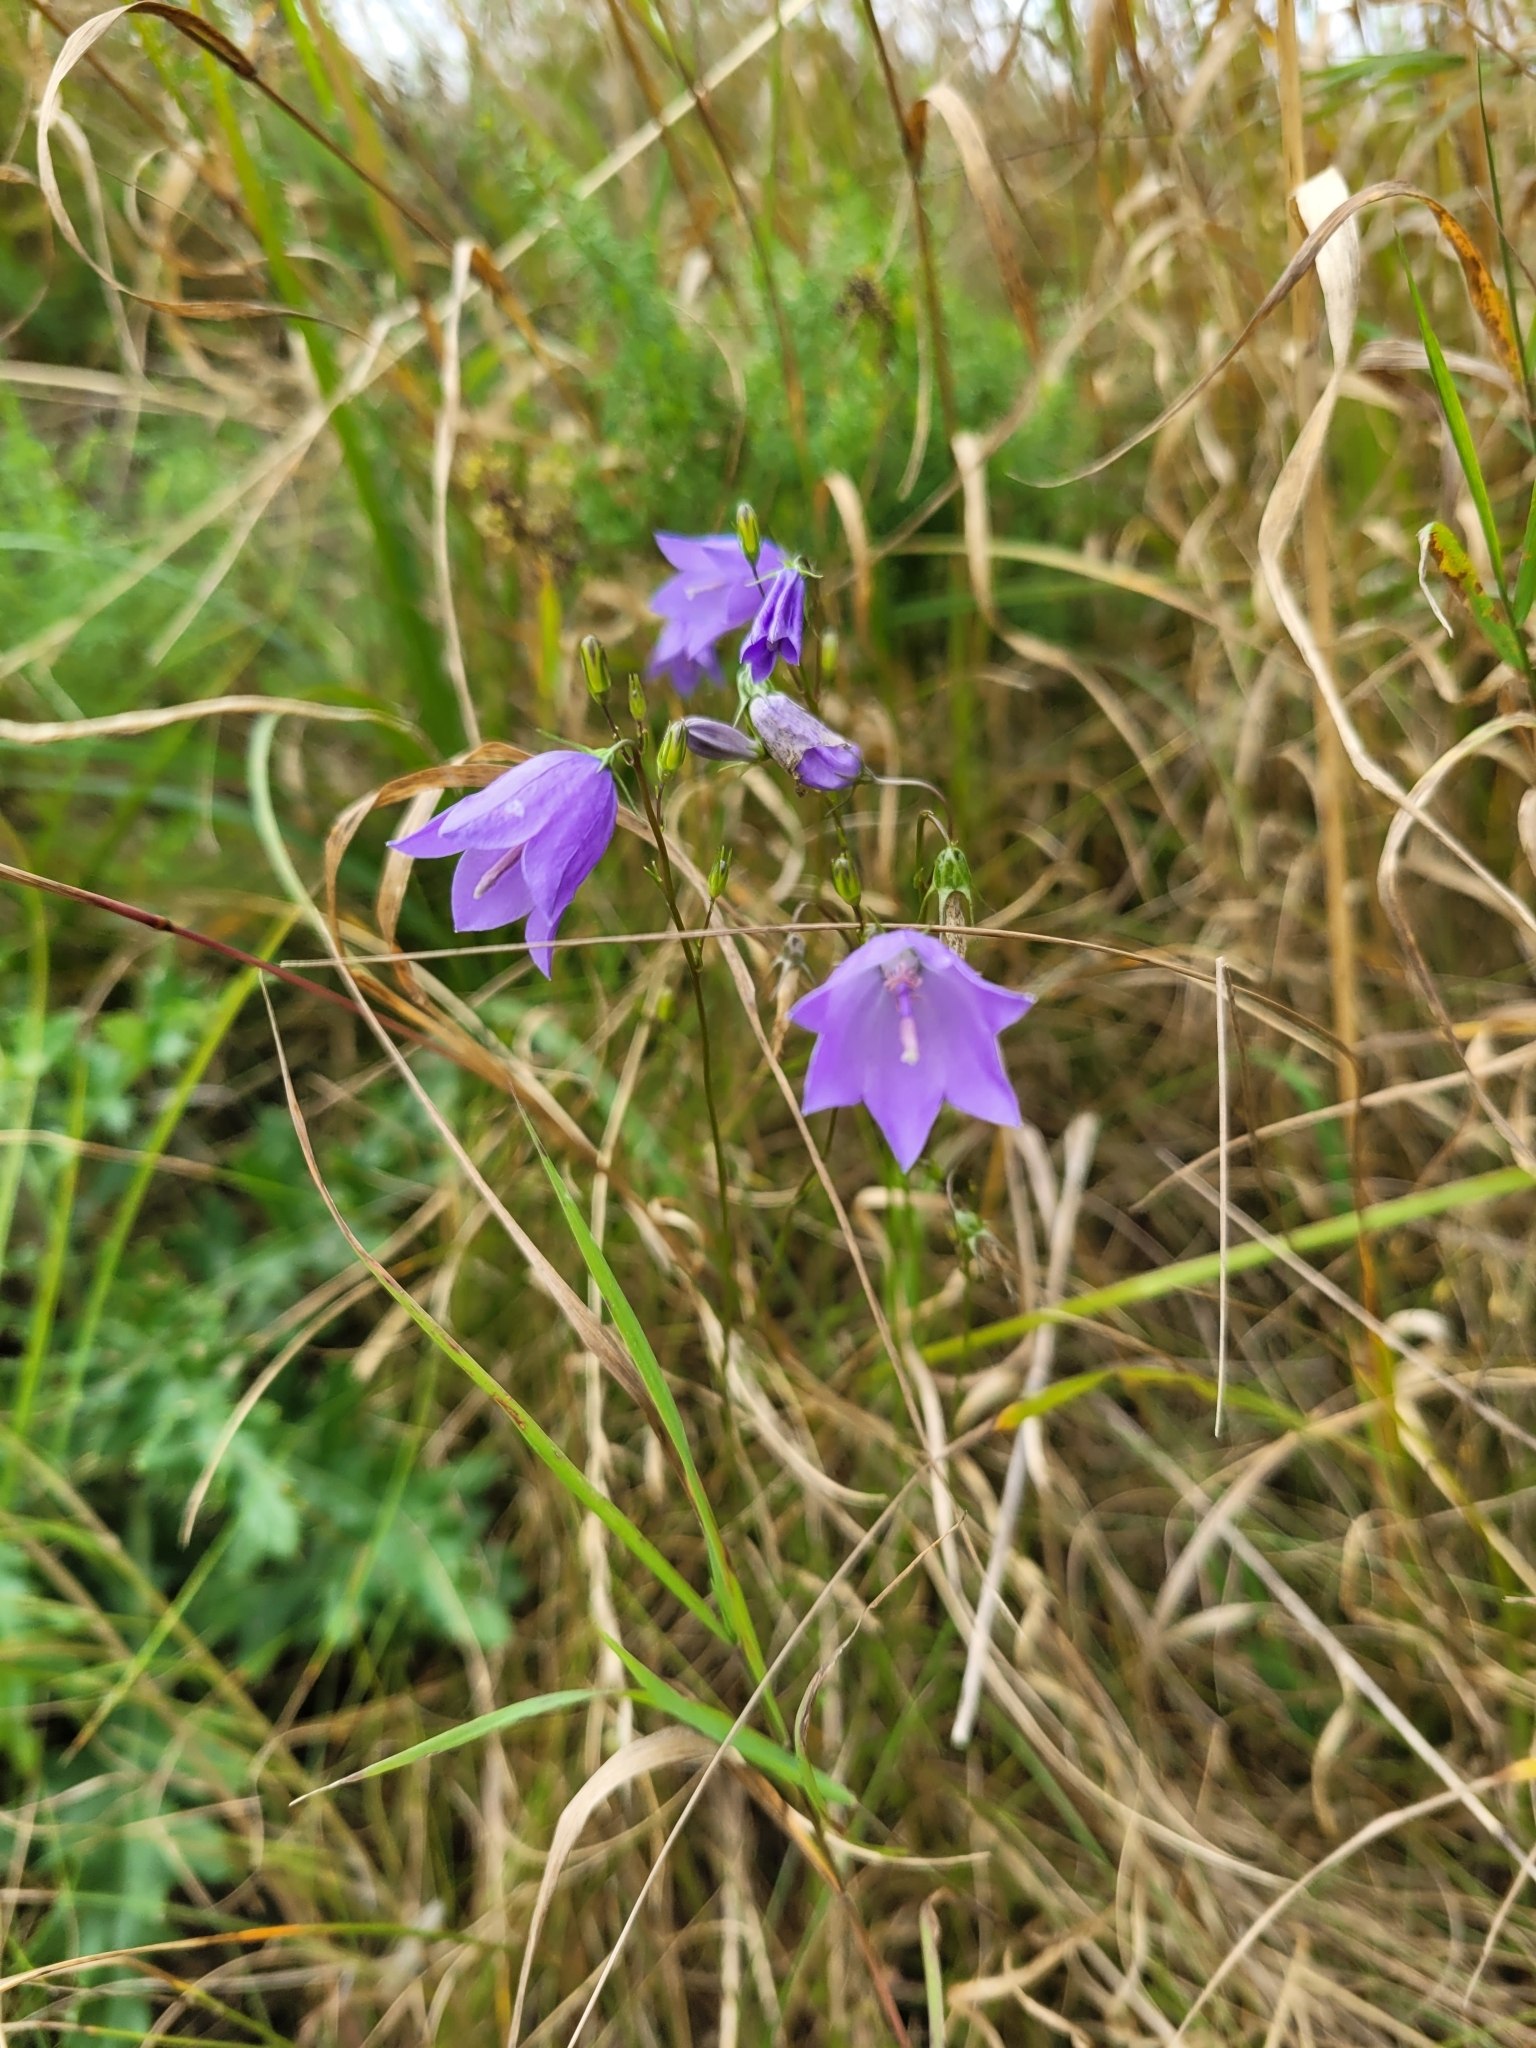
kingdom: Plantae
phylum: Tracheophyta
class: Magnoliopsida
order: Asterales
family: Campanulaceae
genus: Campanula
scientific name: Campanula rotundifolia
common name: Harebell
